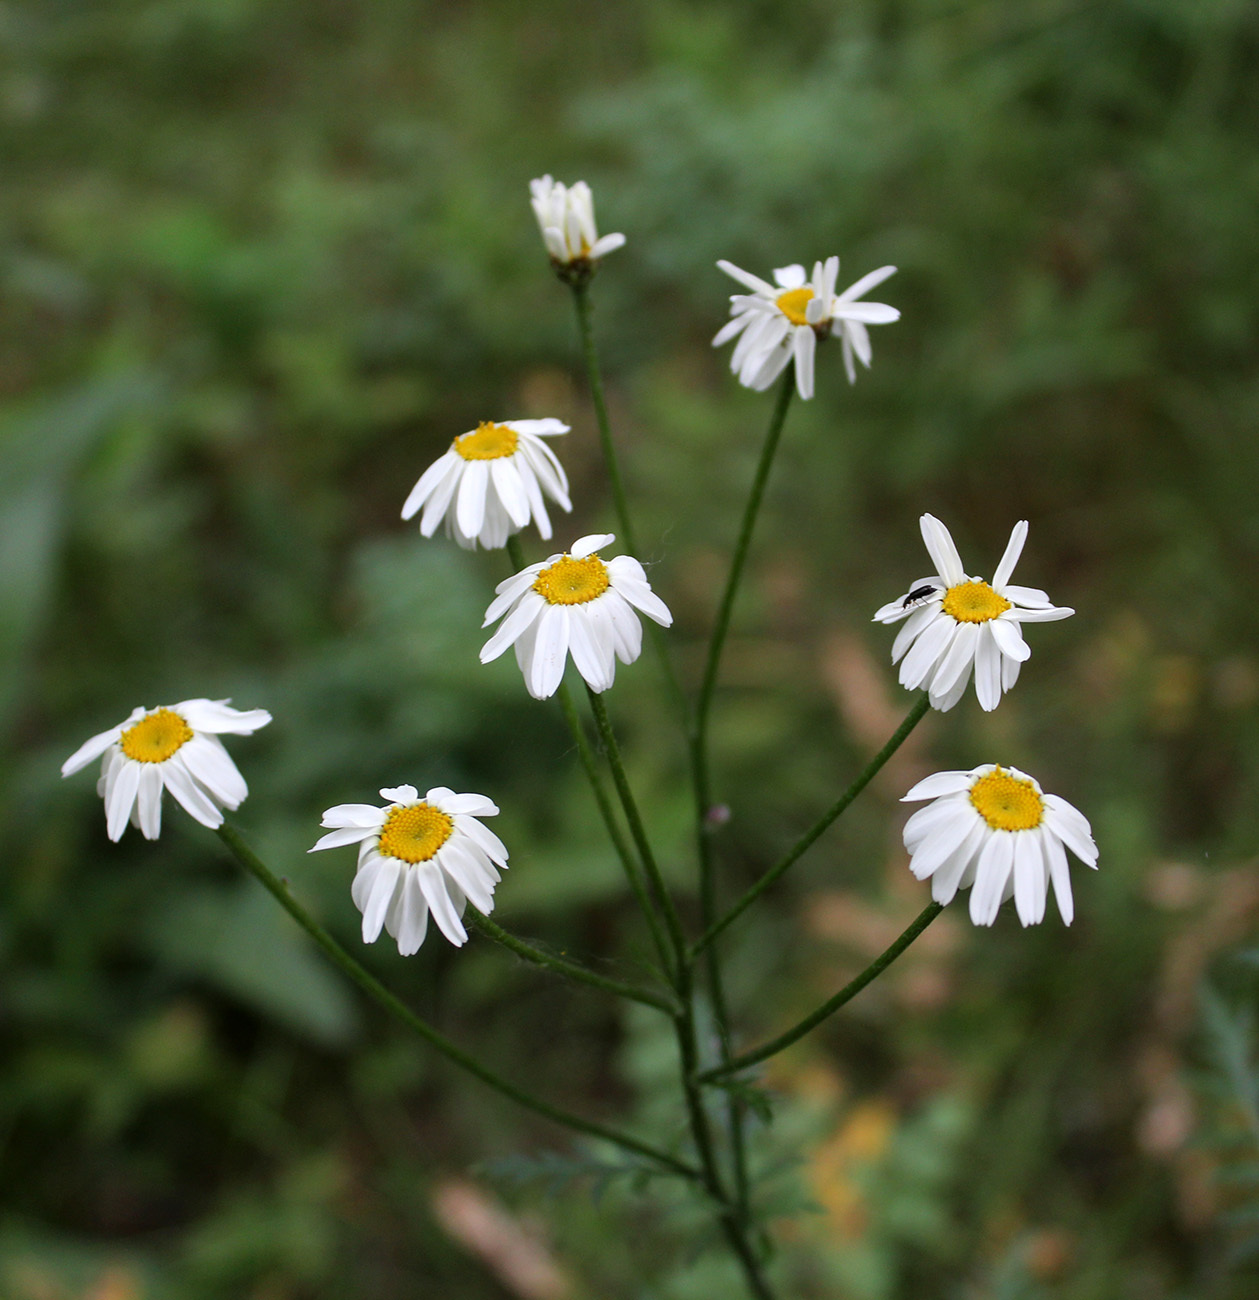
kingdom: Plantae
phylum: Tracheophyta
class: Magnoliopsida
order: Asterales
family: Asteraceae
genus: Tanacetum
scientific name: Tanacetum corymbosum
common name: Scentless feverfew
